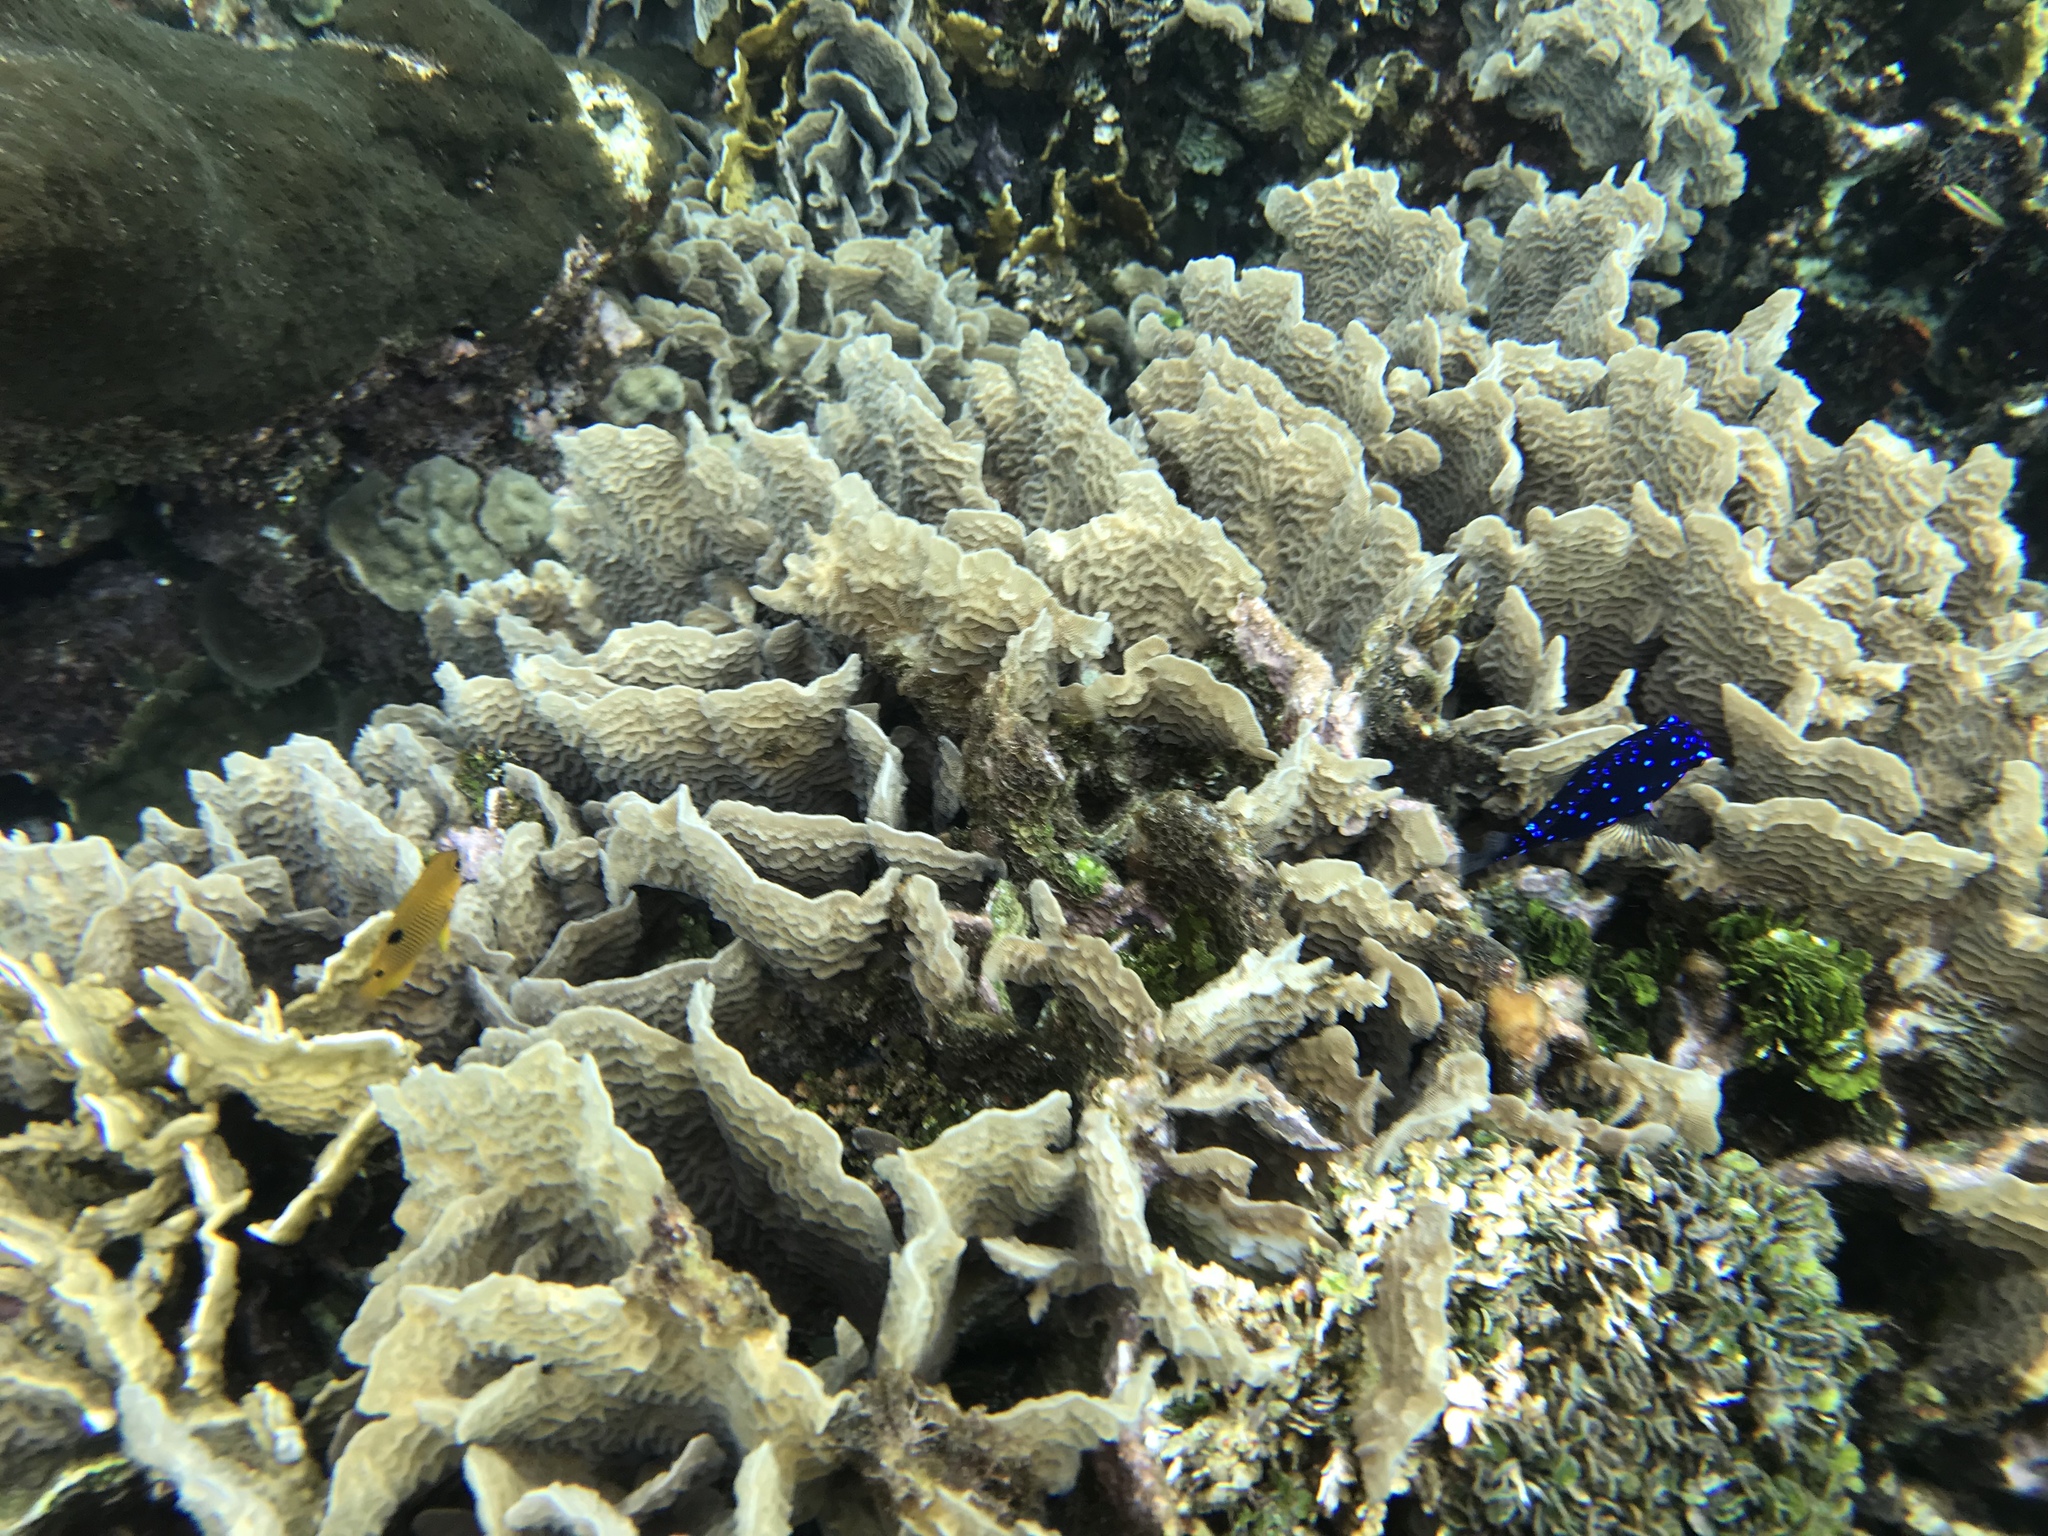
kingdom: Animalia
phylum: Chordata
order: Perciformes
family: Pomacentridae
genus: Microspathodon
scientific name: Microspathodon chrysurus
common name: Yellowtail damselfish
